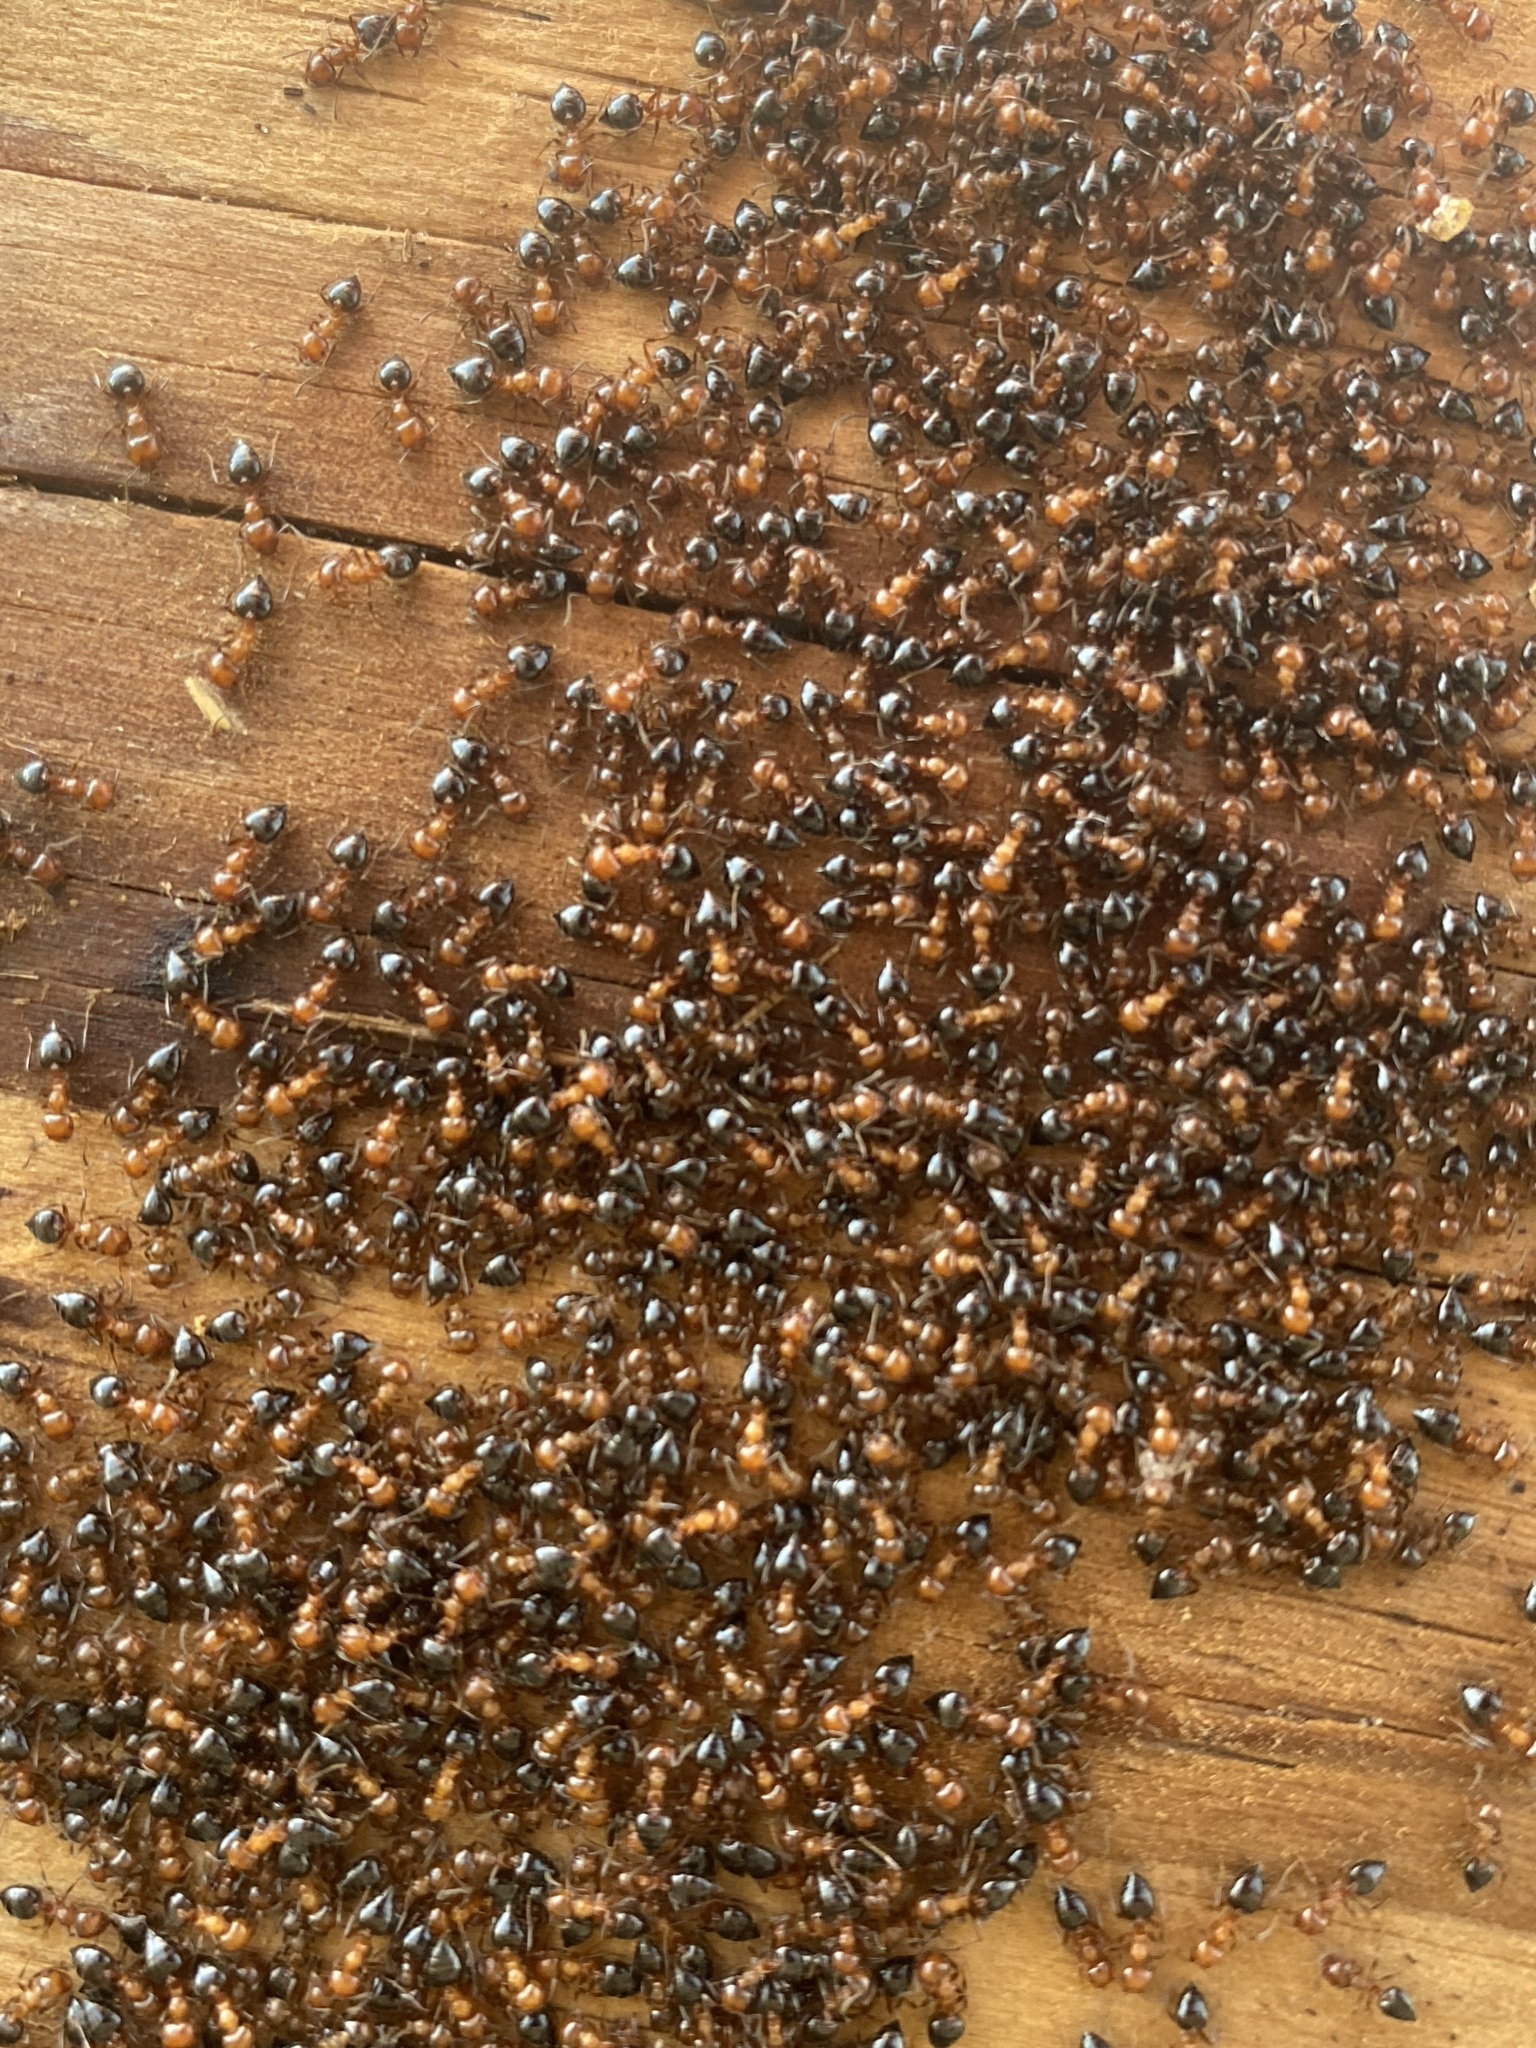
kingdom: Animalia
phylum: Arthropoda
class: Insecta
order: Hymenoptera
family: Formicidae
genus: Crematogaster
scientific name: Crematogaster laeviuscula
